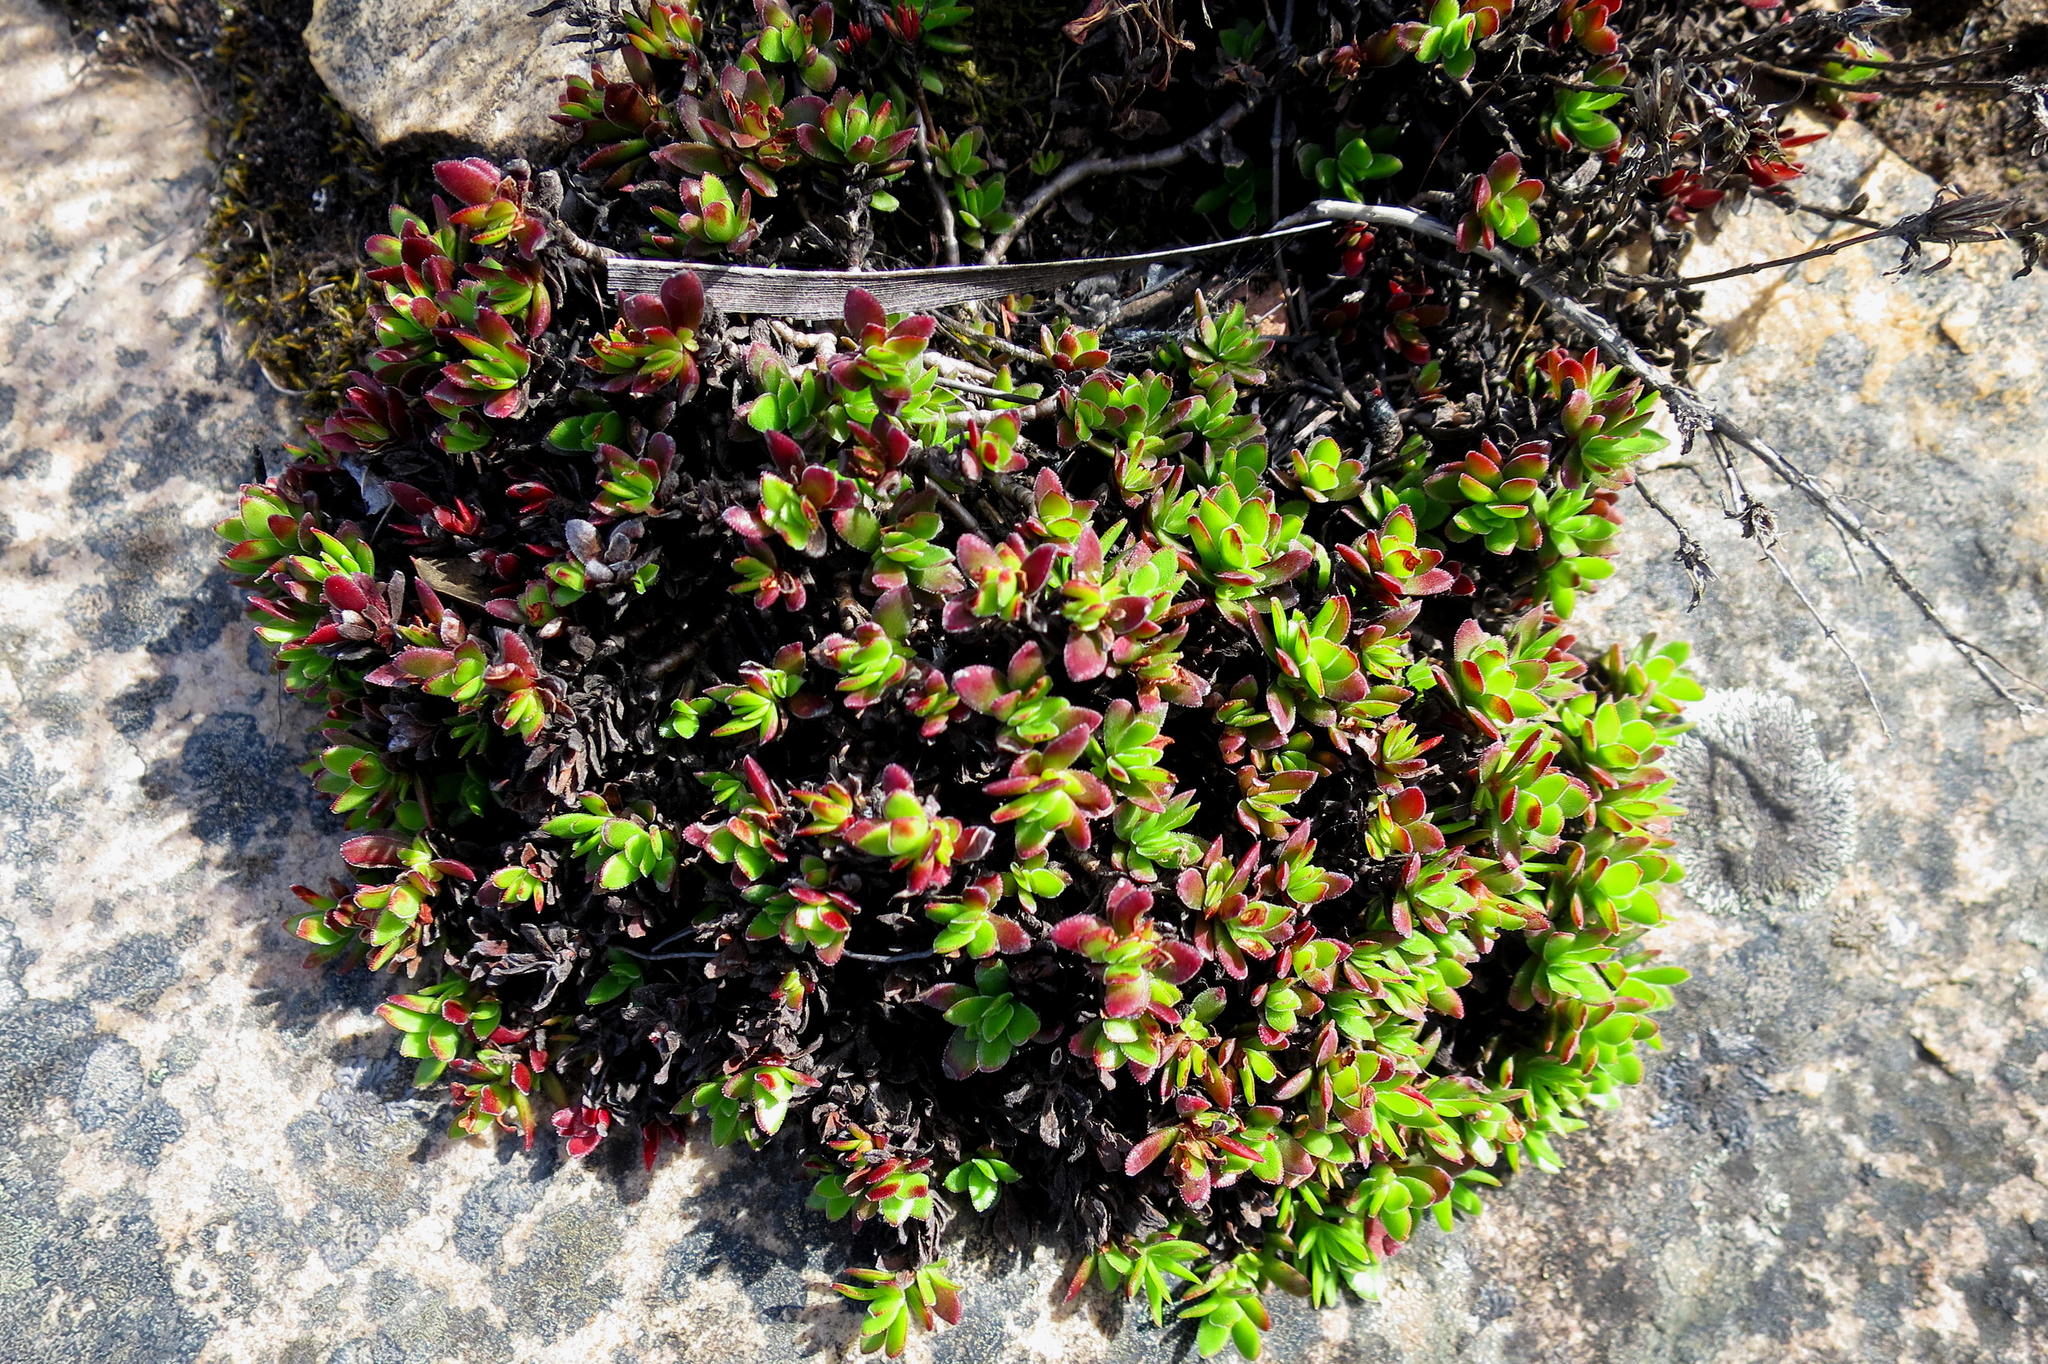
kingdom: Plantae
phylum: Tracheophyta
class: Magnoliopsida
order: Saxifragales
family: Crassulaceae
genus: Crassula
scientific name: Crassula obtusa
